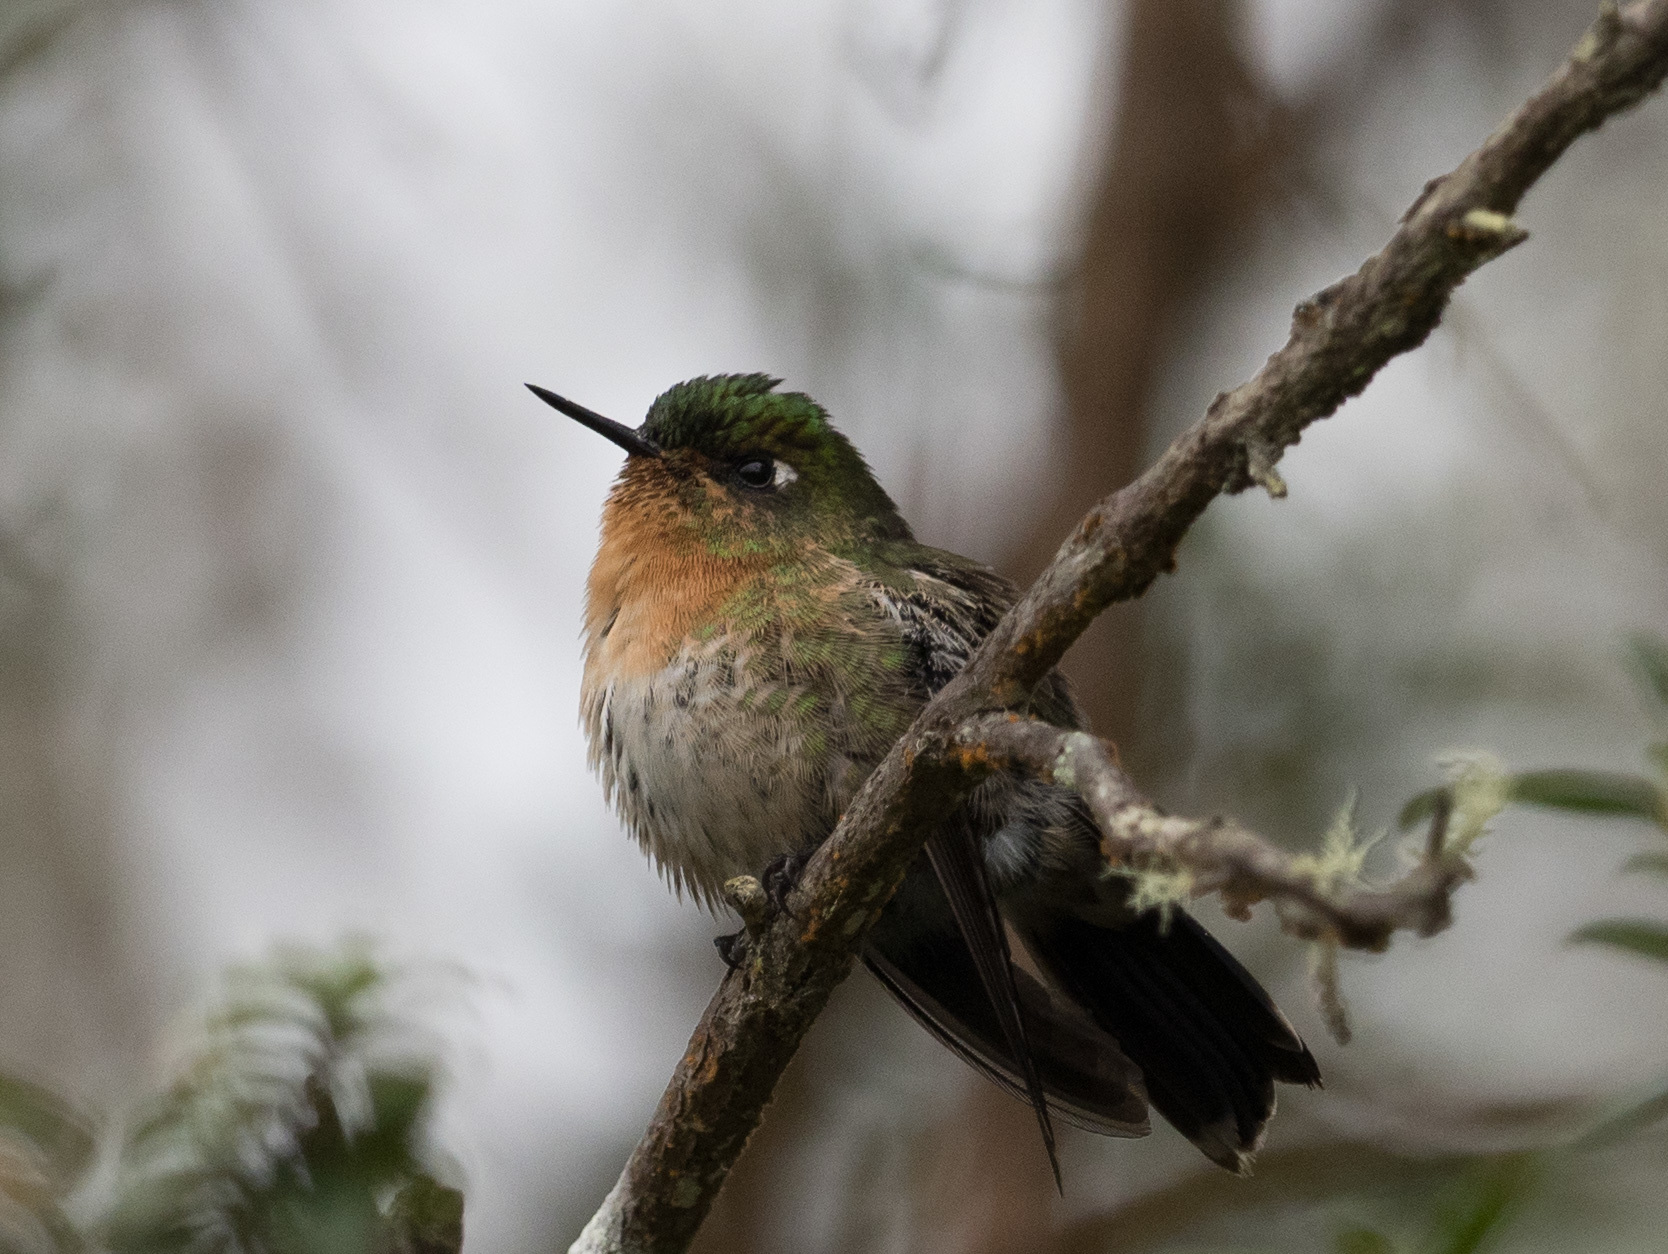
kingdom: Animalia
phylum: Chordata
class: Aves
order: Apodiformes
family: Trochilidae
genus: Metallura
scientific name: Metallura tyrianthina
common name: Tyrian metaltail
